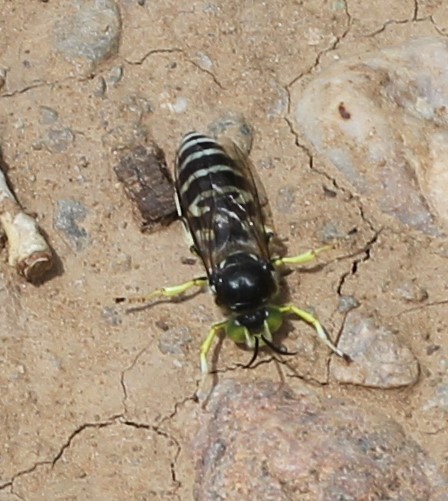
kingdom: Animalia
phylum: Arthropoda
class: Insecta
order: Hymenoptera
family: Crabronidae
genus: Steniolia
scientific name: Steniolia obliqua
